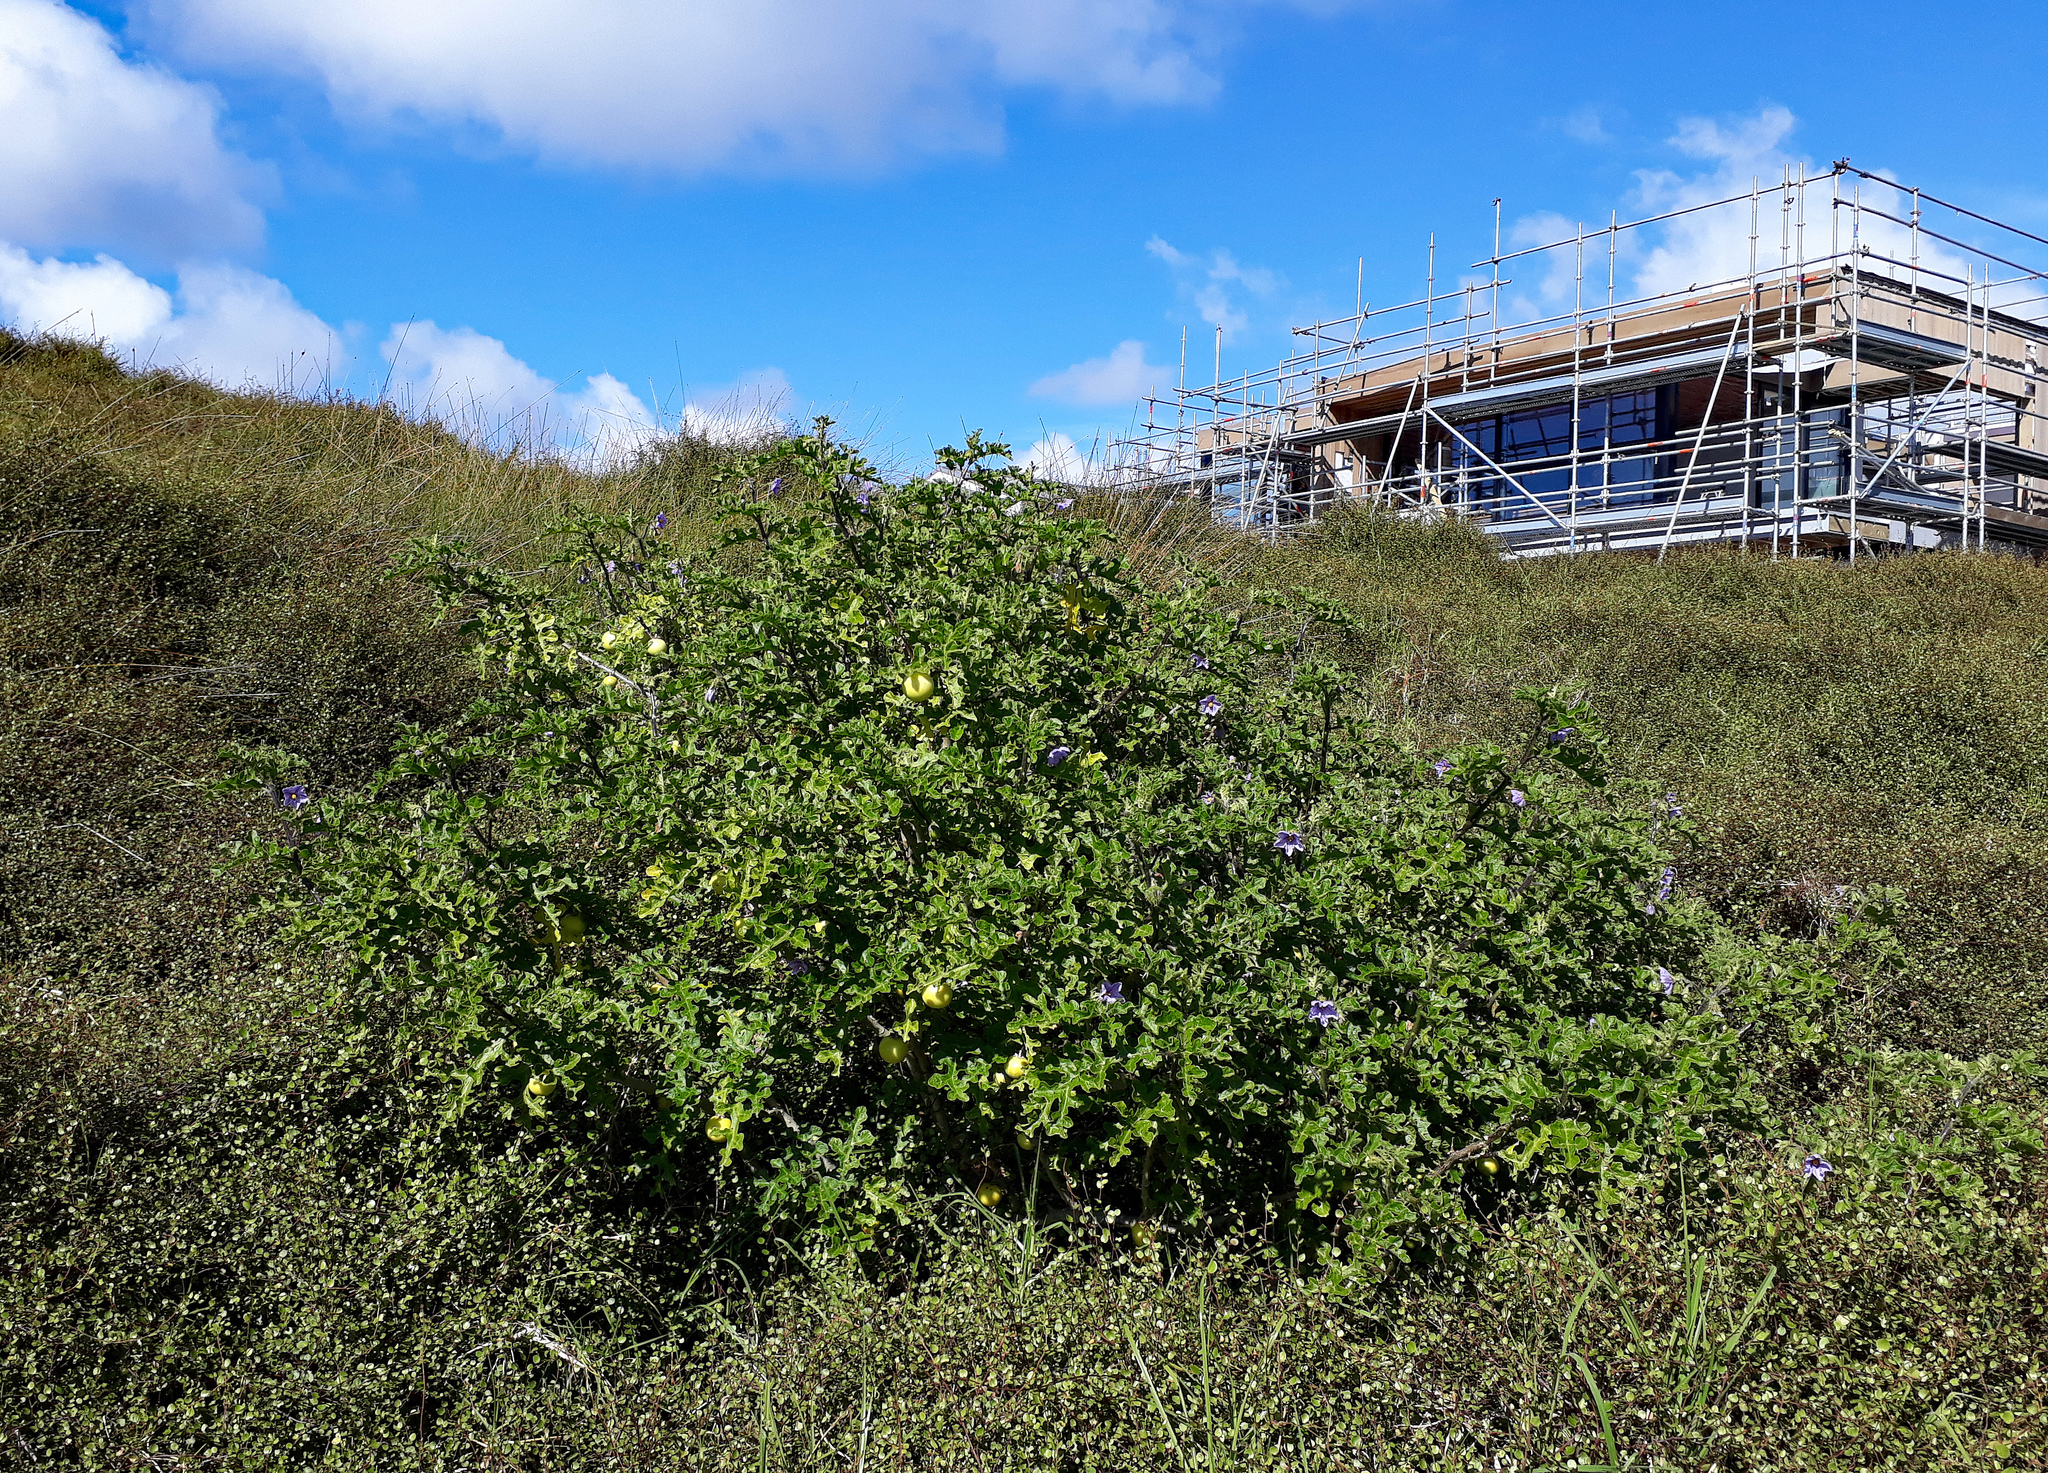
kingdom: Plantae
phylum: Tracheophyta
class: Magnoliopsida
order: Solanales
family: Solanaceae
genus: Solanum
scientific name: Solanum linnaeanum
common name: Nightshade
